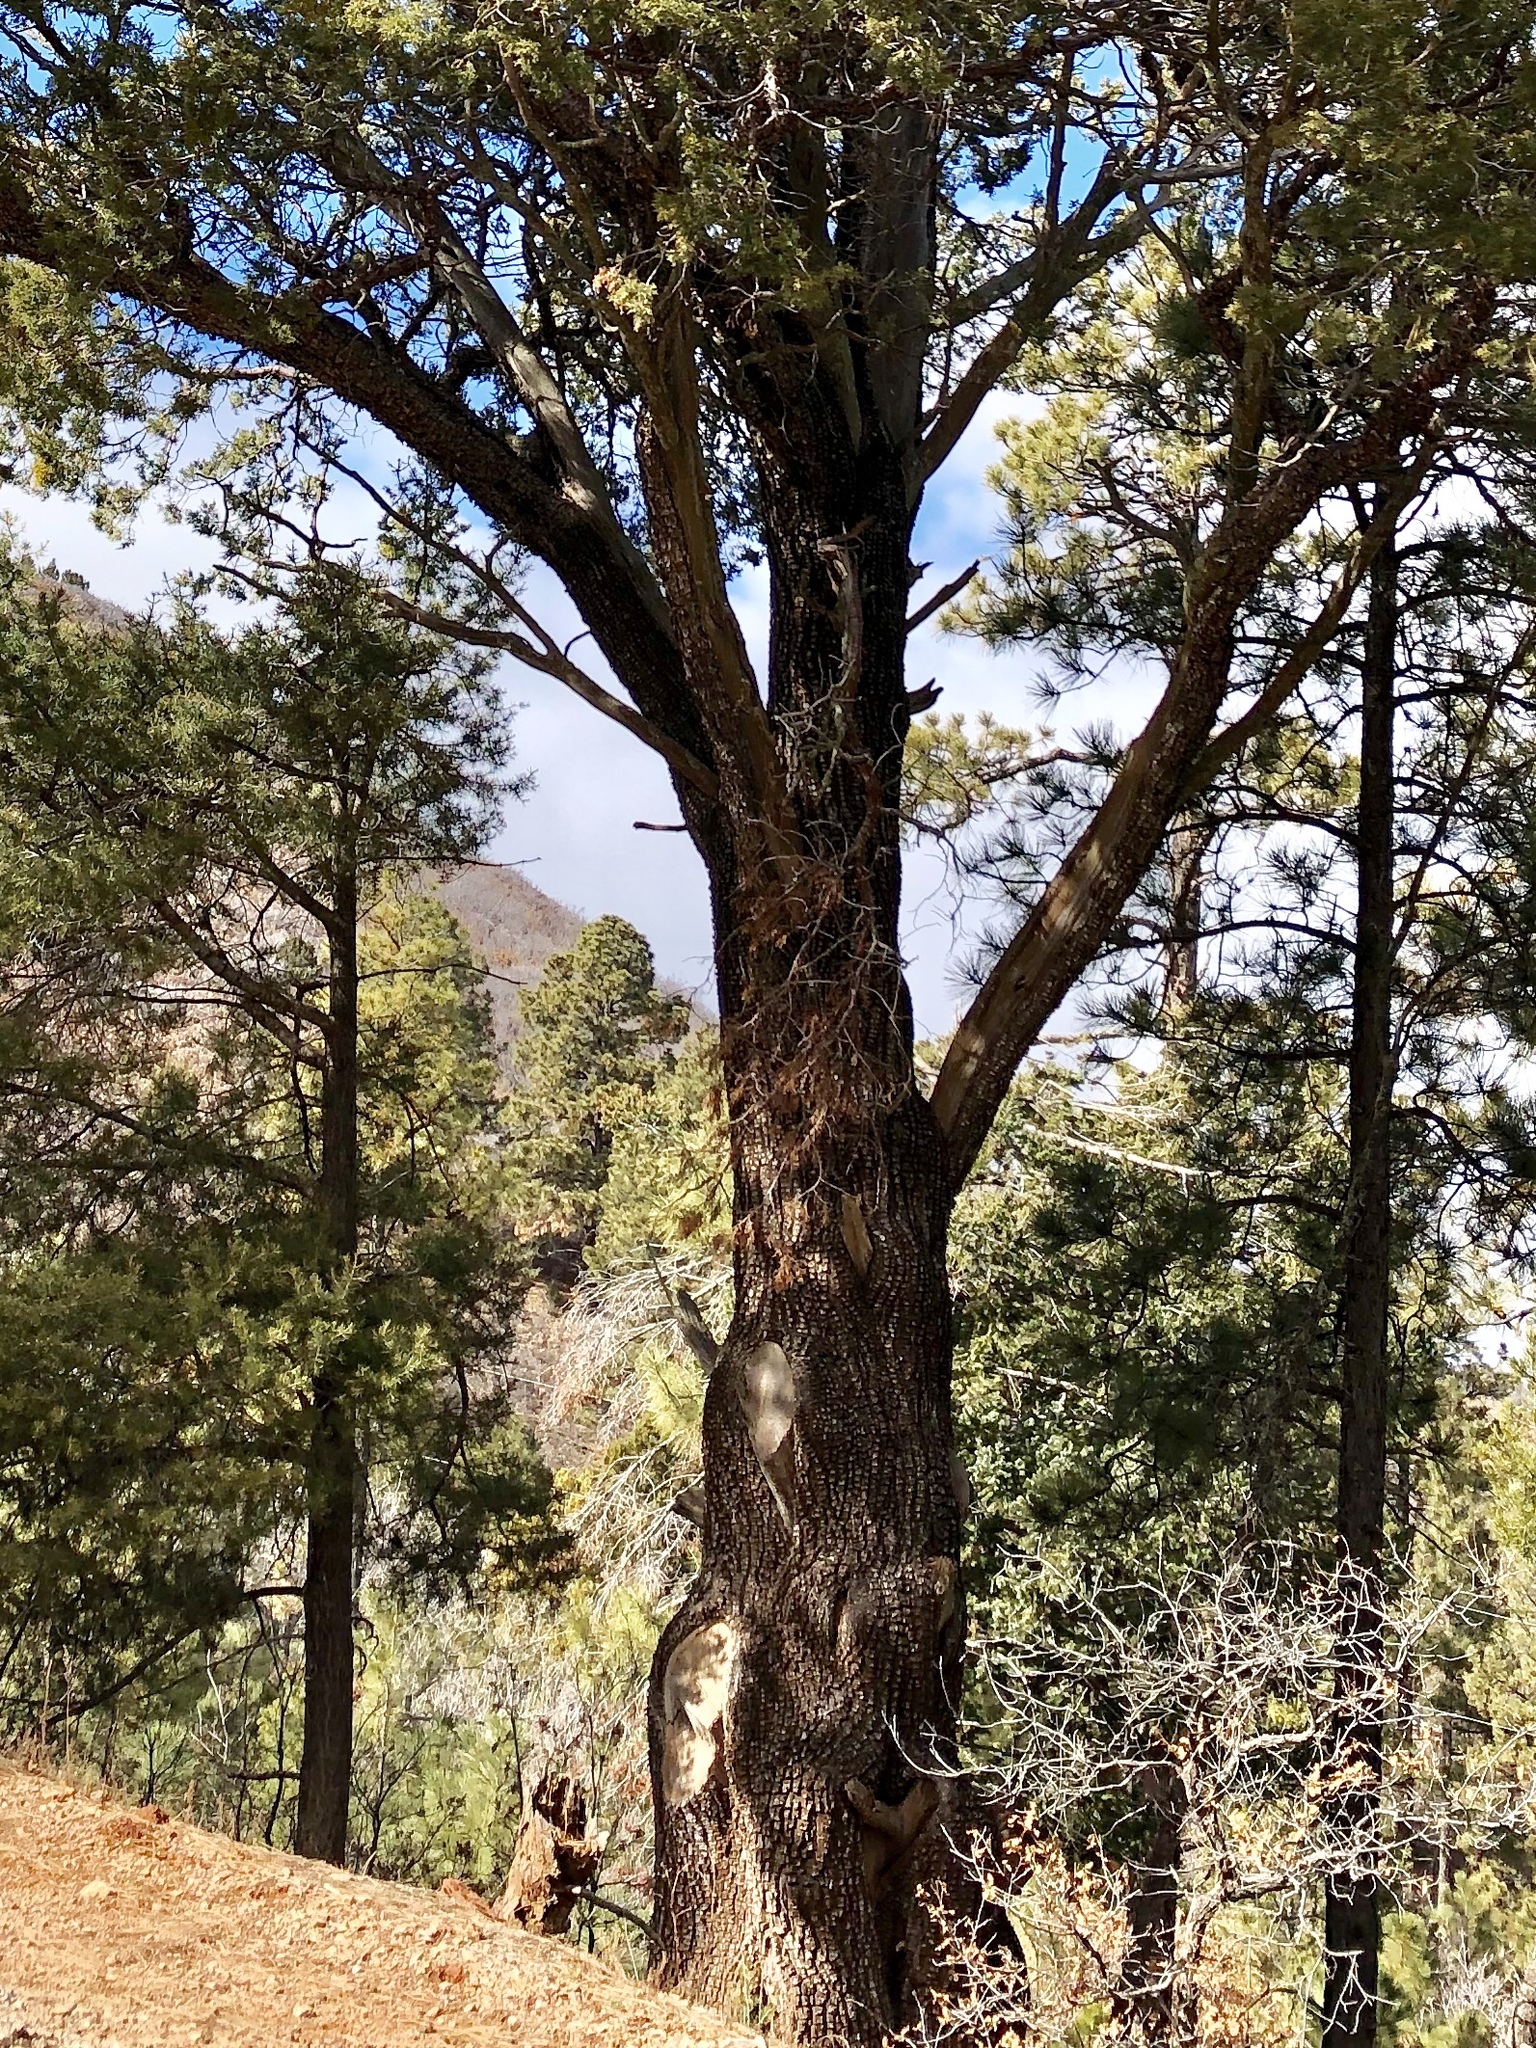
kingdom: Plantae
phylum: Tracheophyta
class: Pinopsida
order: Pinales
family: Cupressaceae
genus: Juniperus
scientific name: Juniperus deppeana
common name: Alligator juniper
